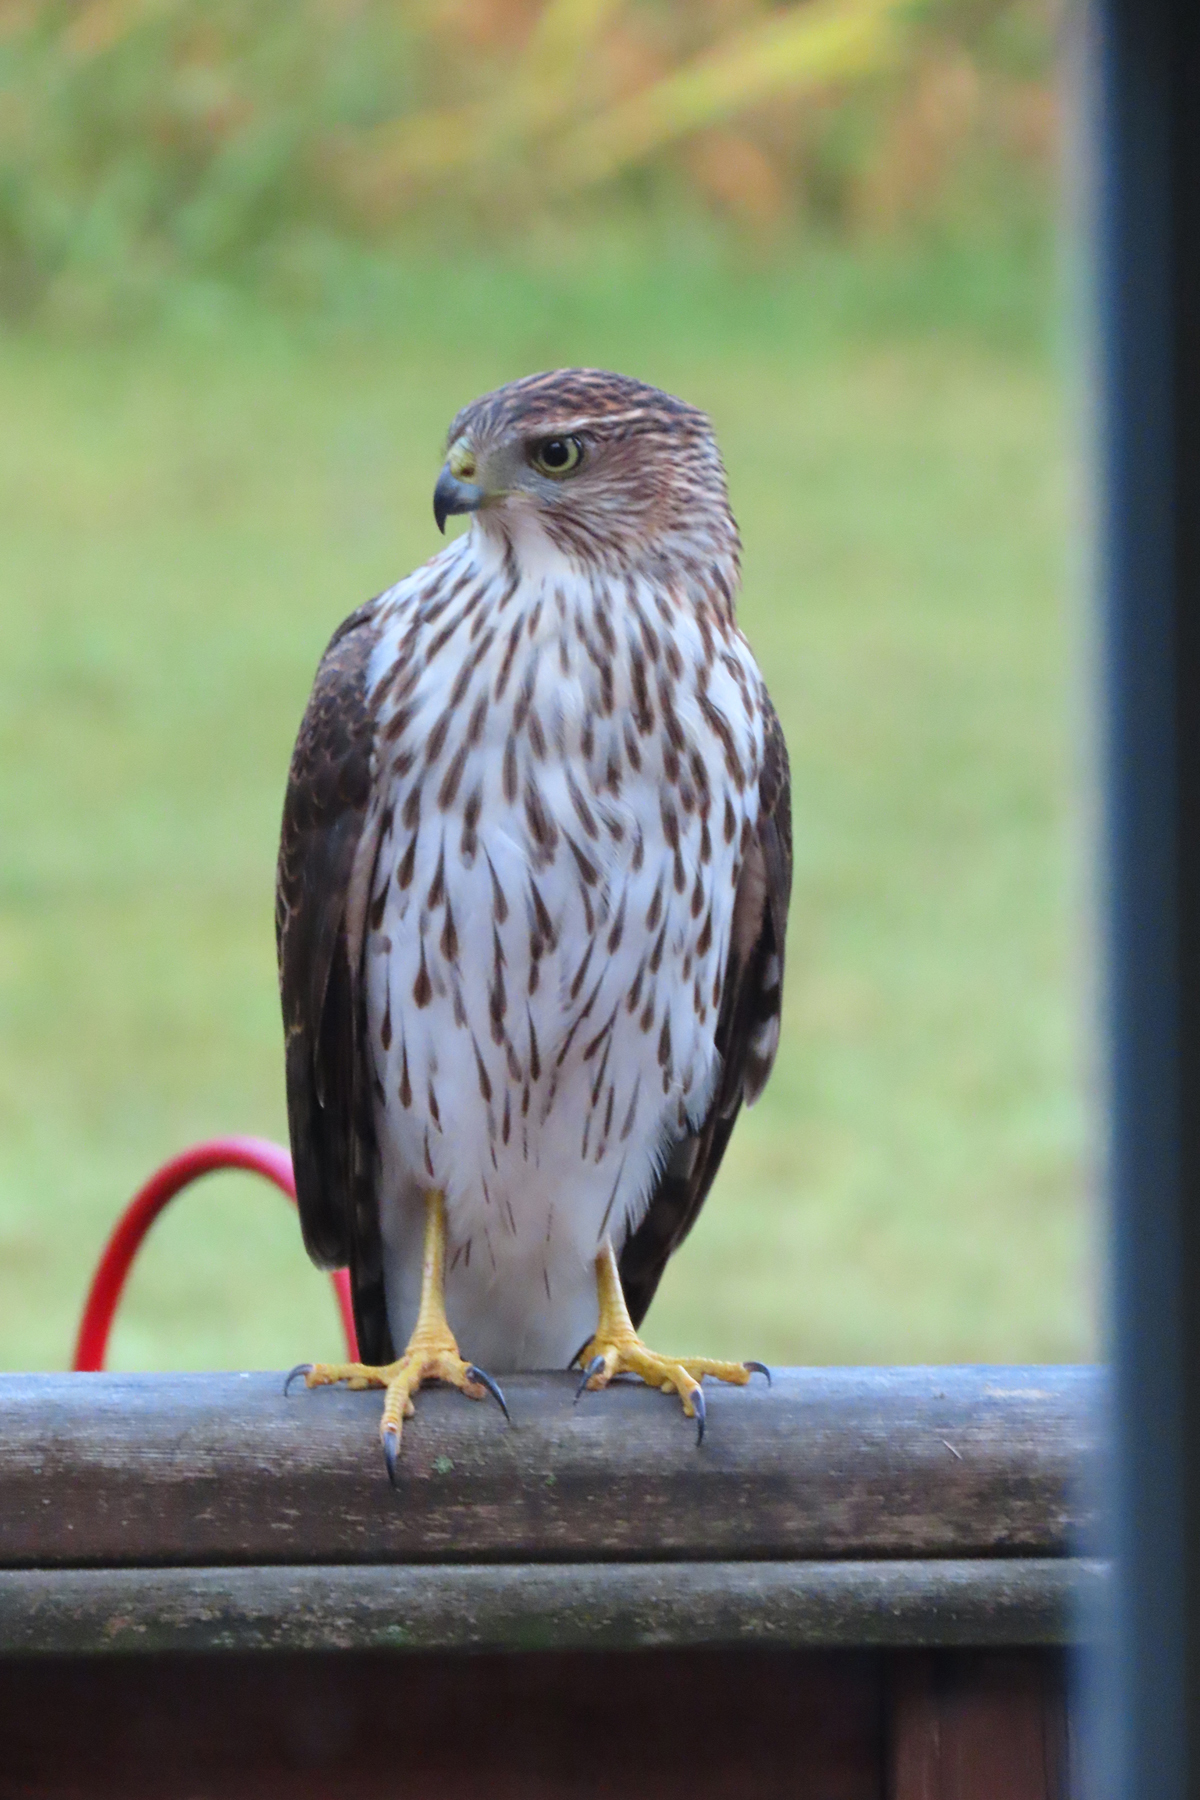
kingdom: Animalia
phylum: Chordata
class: Aves
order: Accipitriformes
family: Accipitridae
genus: Accipiter
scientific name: Accipiter cooperii
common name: Cooper's hawk
